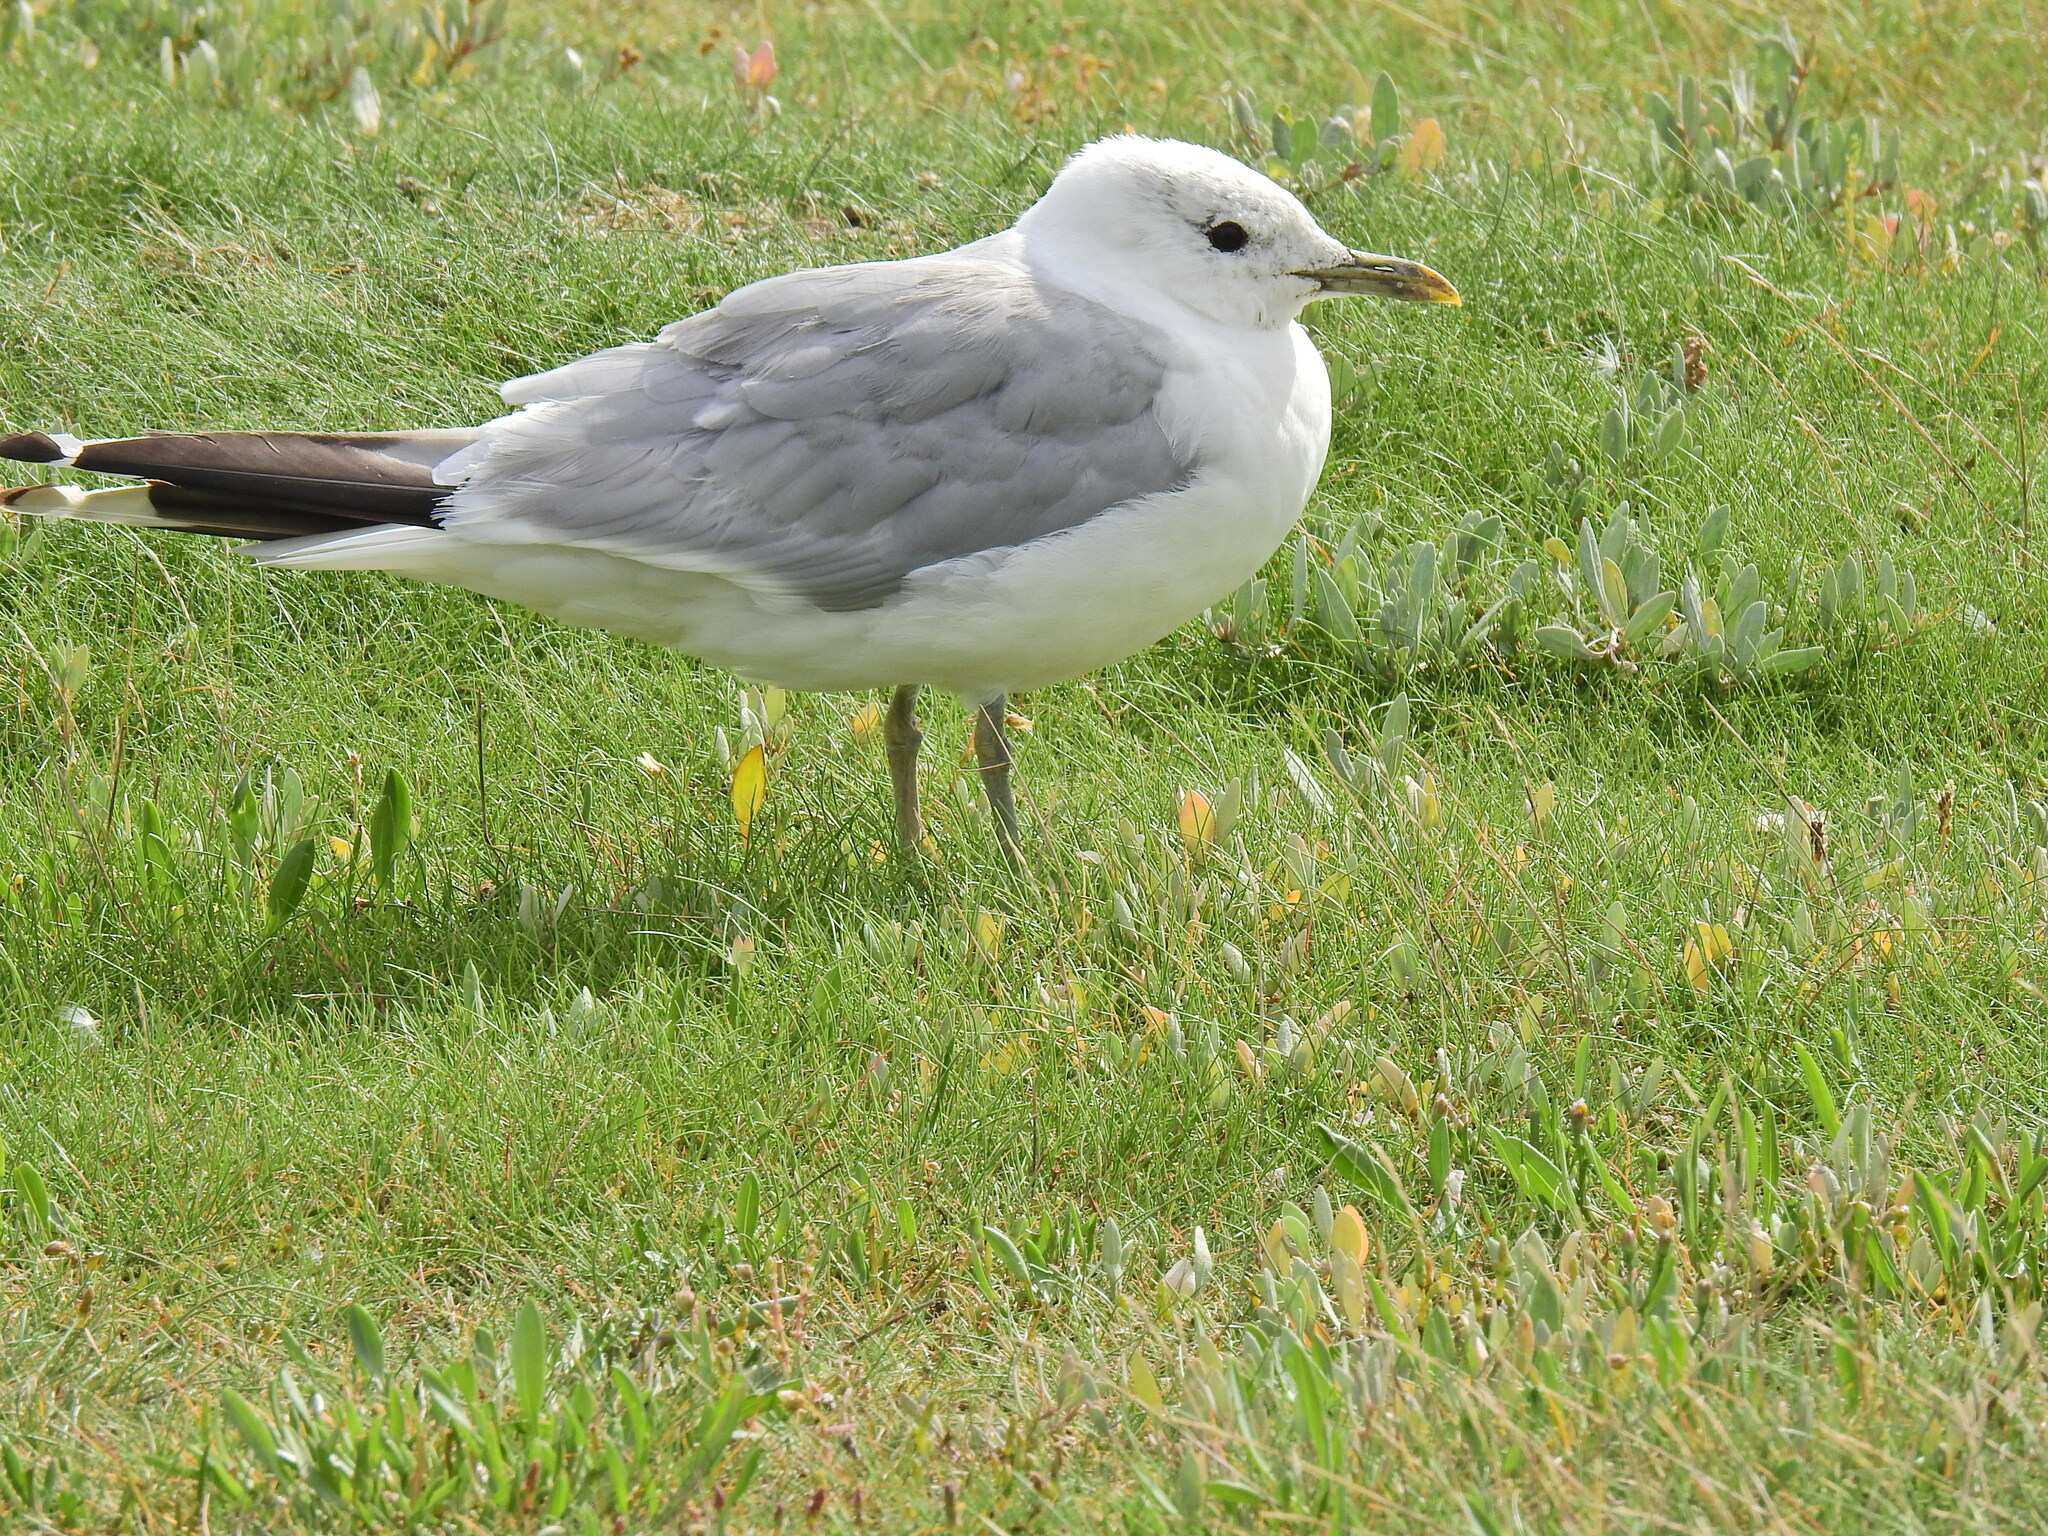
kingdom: Animalia
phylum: Chordata
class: Aves
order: Charadriiformes
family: Laridae
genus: Larus
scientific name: Larus canus
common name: Mew gull
